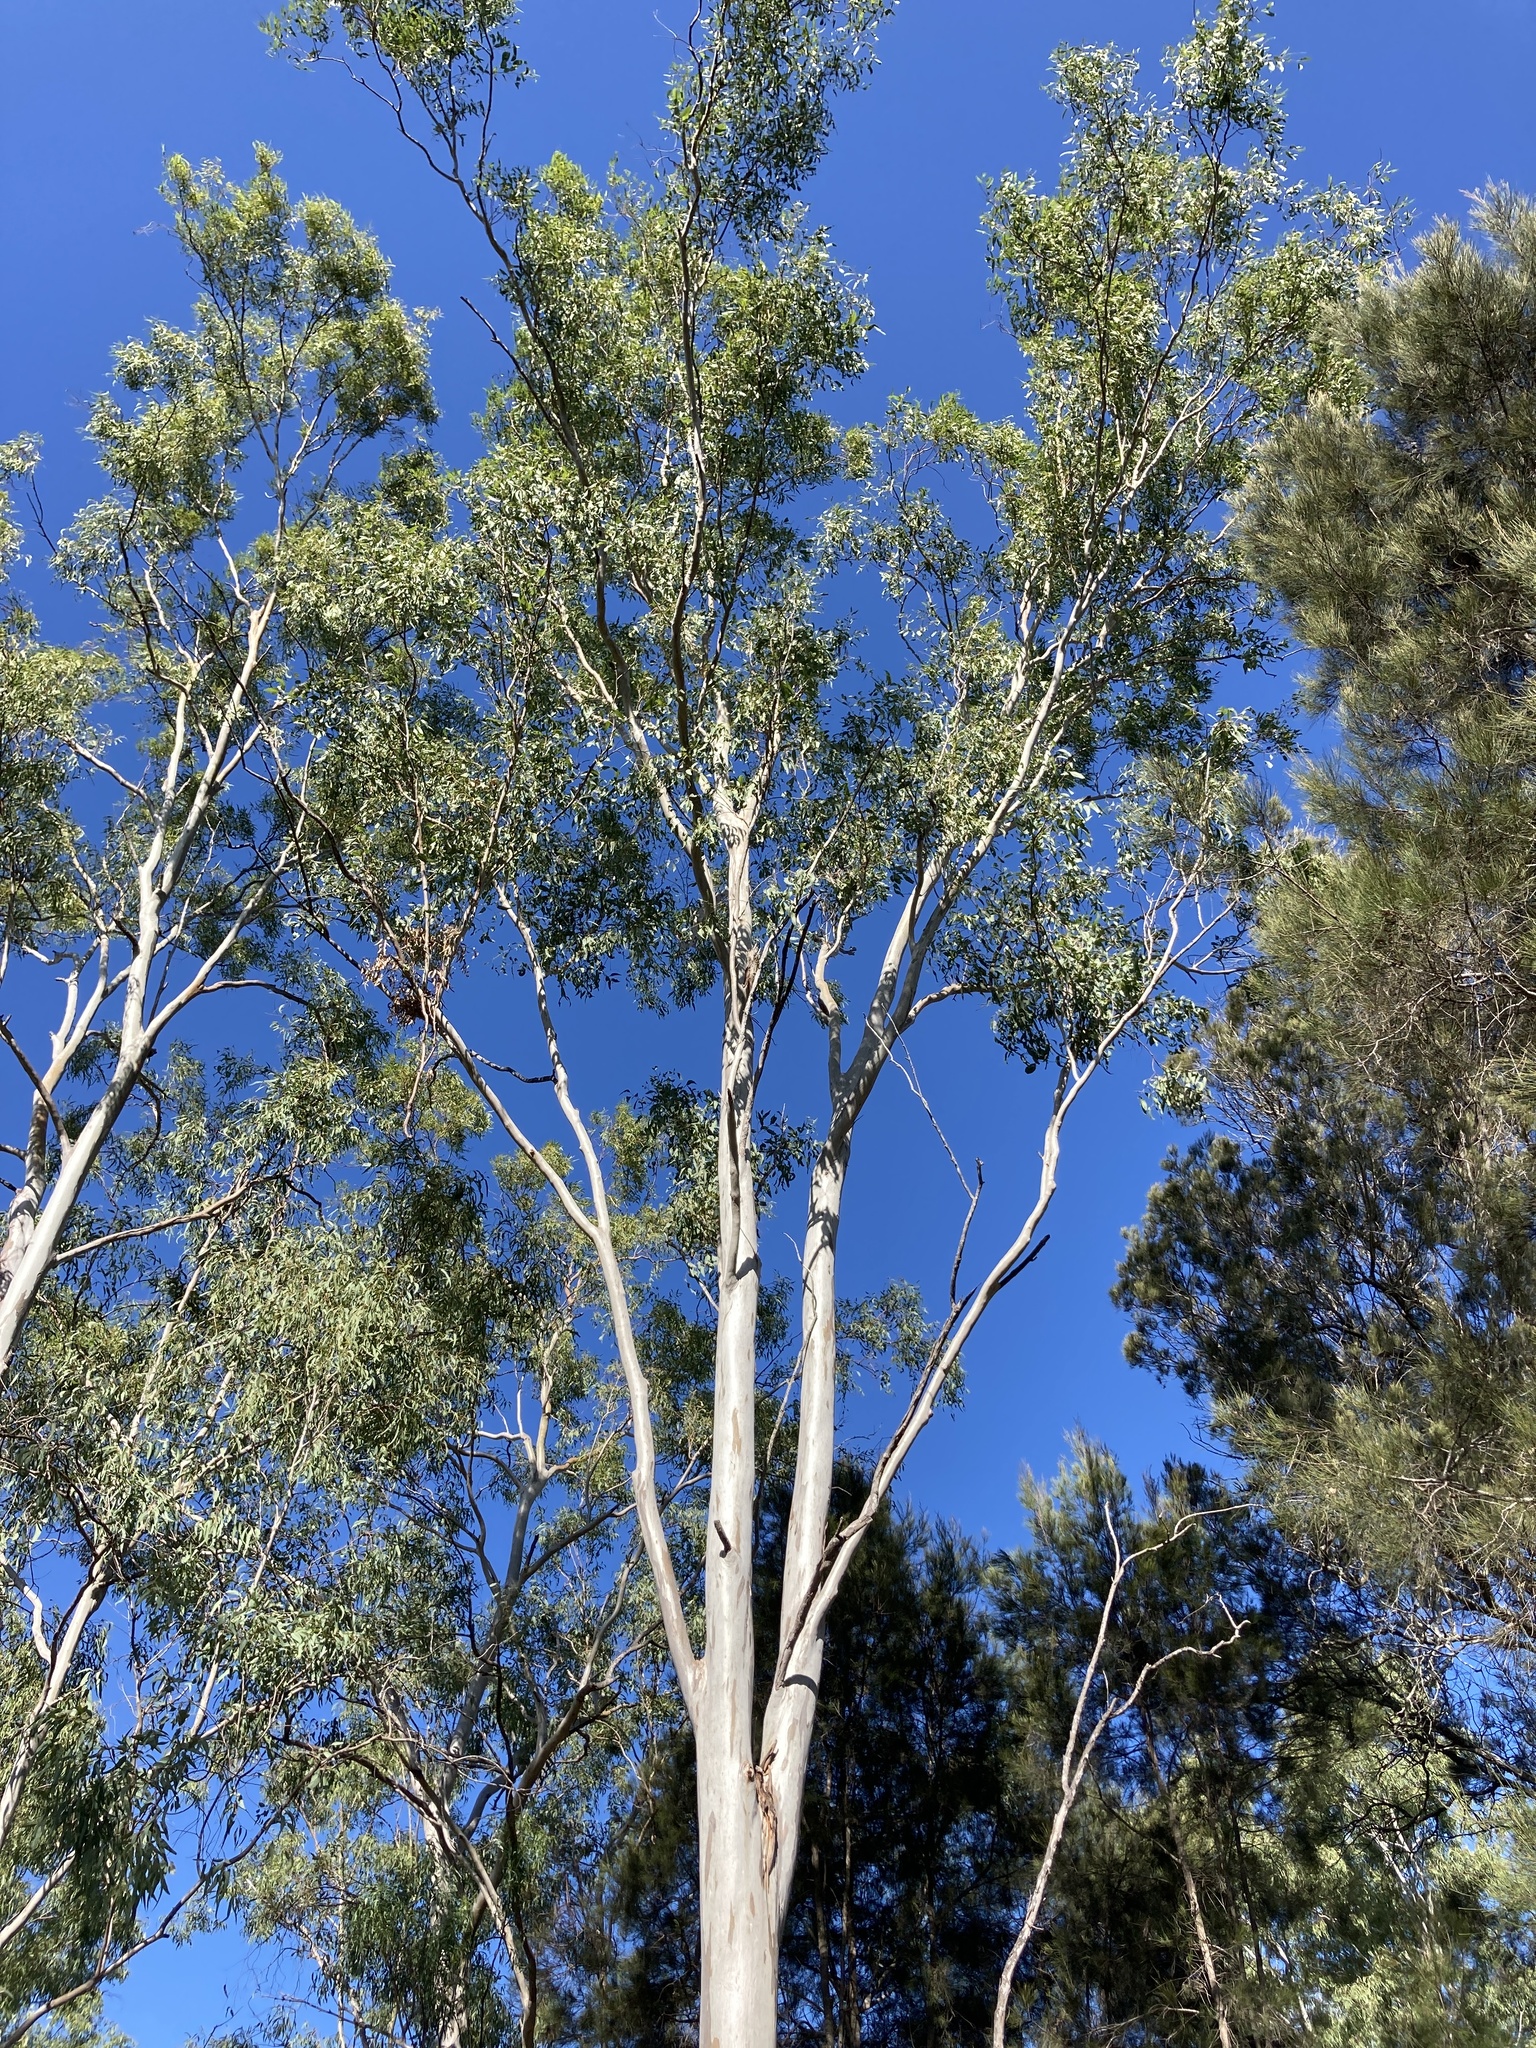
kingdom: Plantae
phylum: Tracheophyta
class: Magnoliopsida
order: Myrtales
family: Myrtaceae
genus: Eucalyptus
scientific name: Eucalyptus tereticornis
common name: Forest redgum
